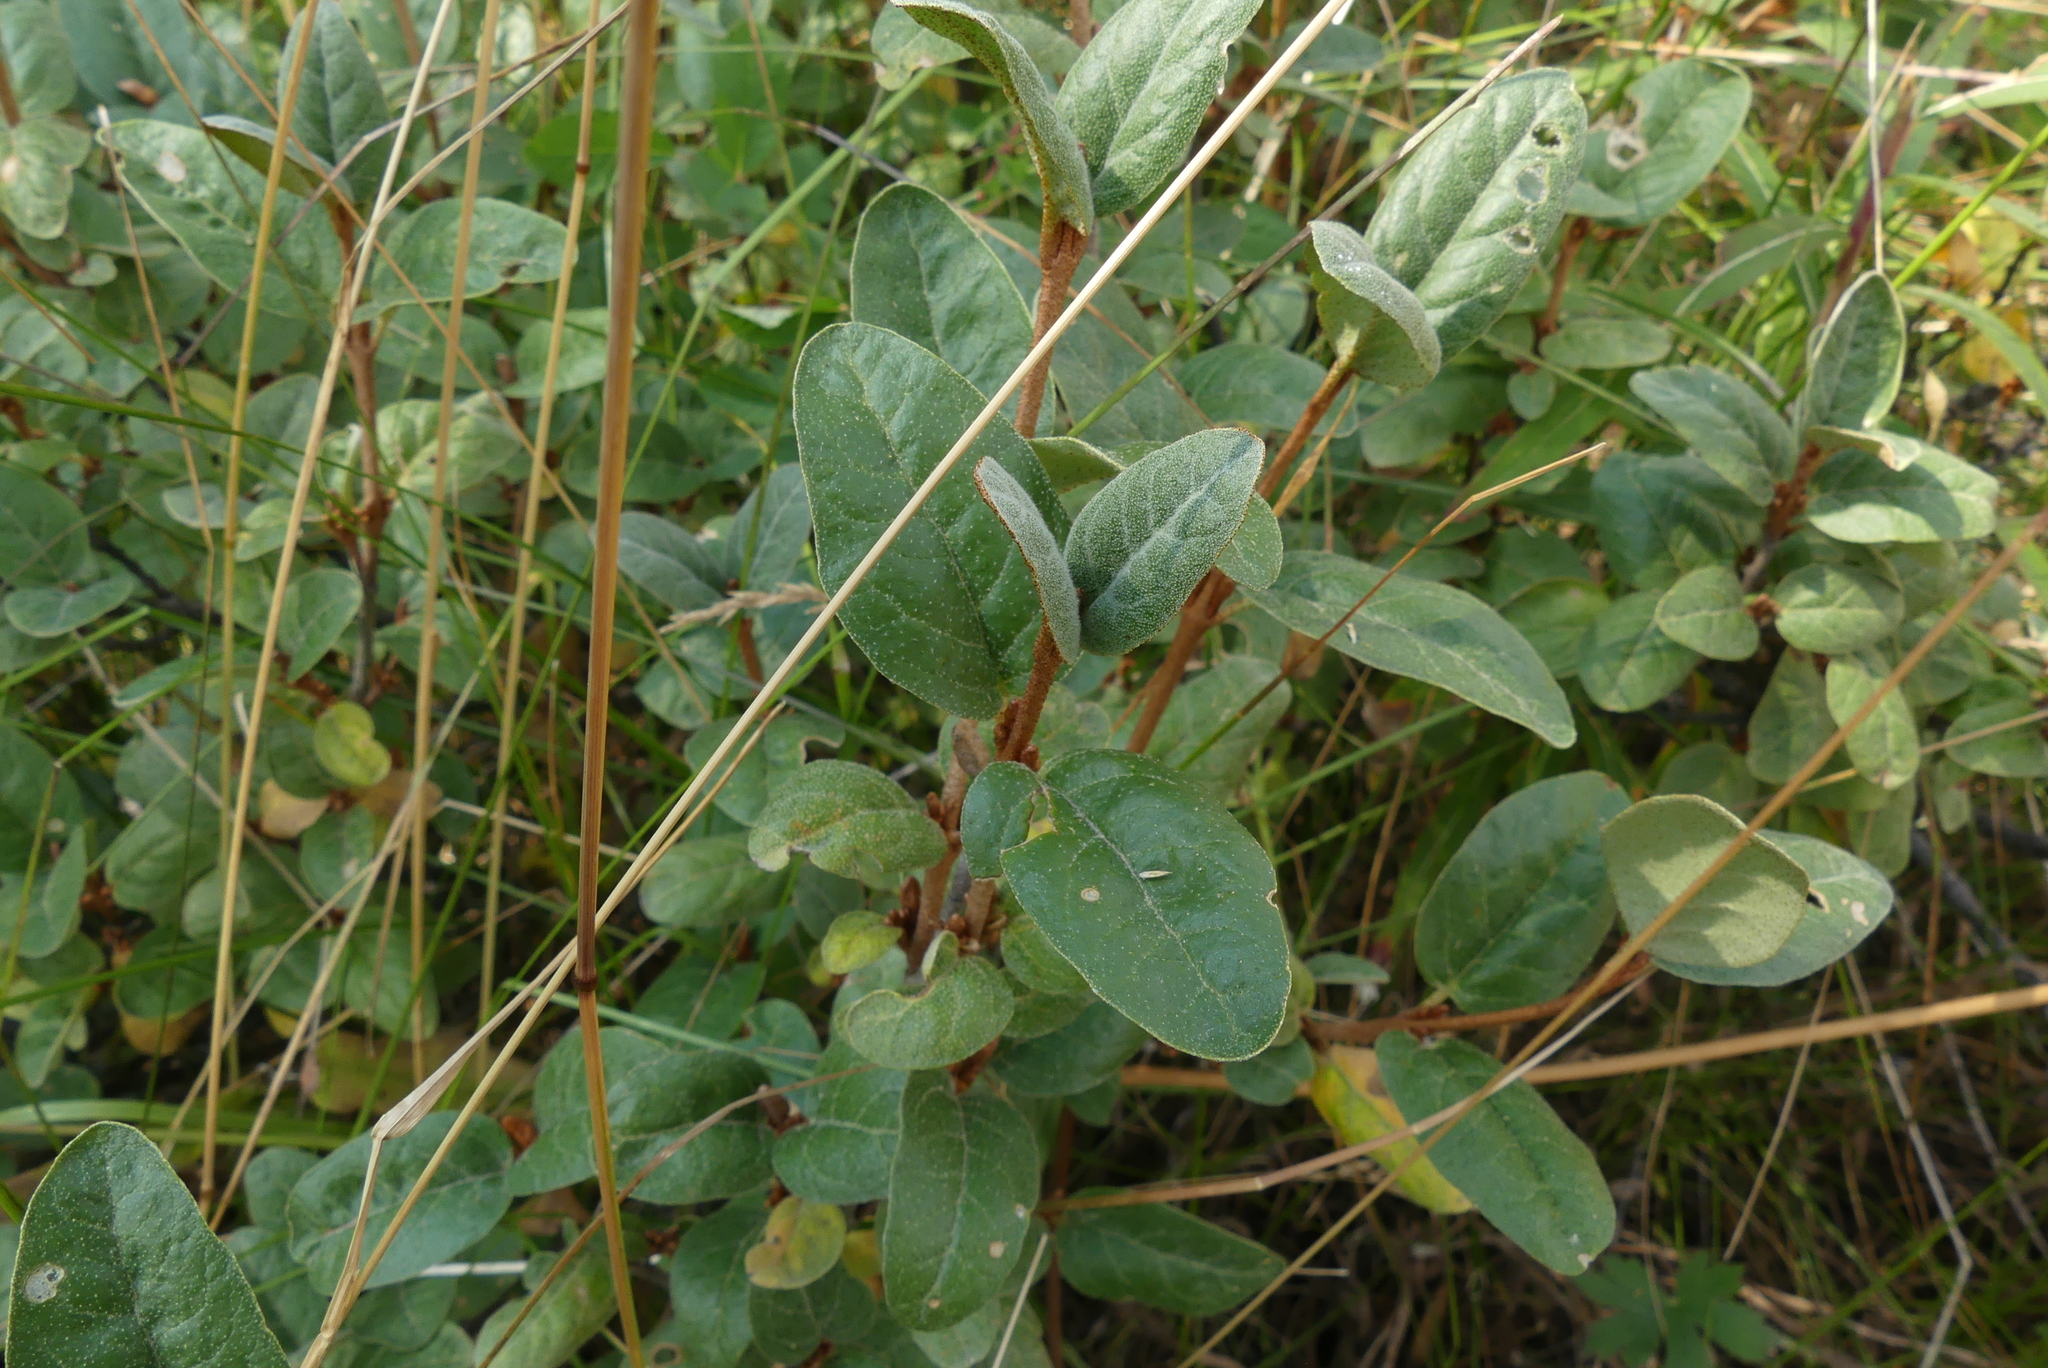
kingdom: Plantae
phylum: Tracheophyta
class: Magnoliopsida
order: Rosales
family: Elaeagnaceae
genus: Shepherdia
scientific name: Shepherdia canadensis
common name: Soapberry
